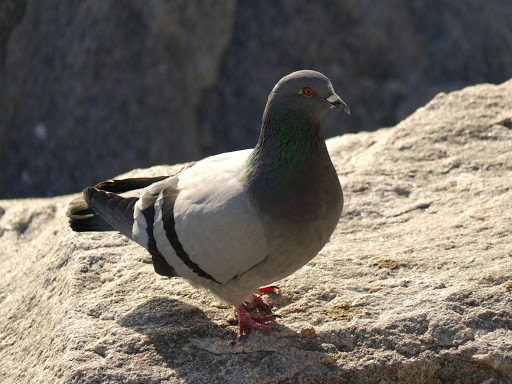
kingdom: Animalia
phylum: Chordata
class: Aves
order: Columbiformes
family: Columbidae
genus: Columba
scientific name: Columba livia
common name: Rock pigeon
